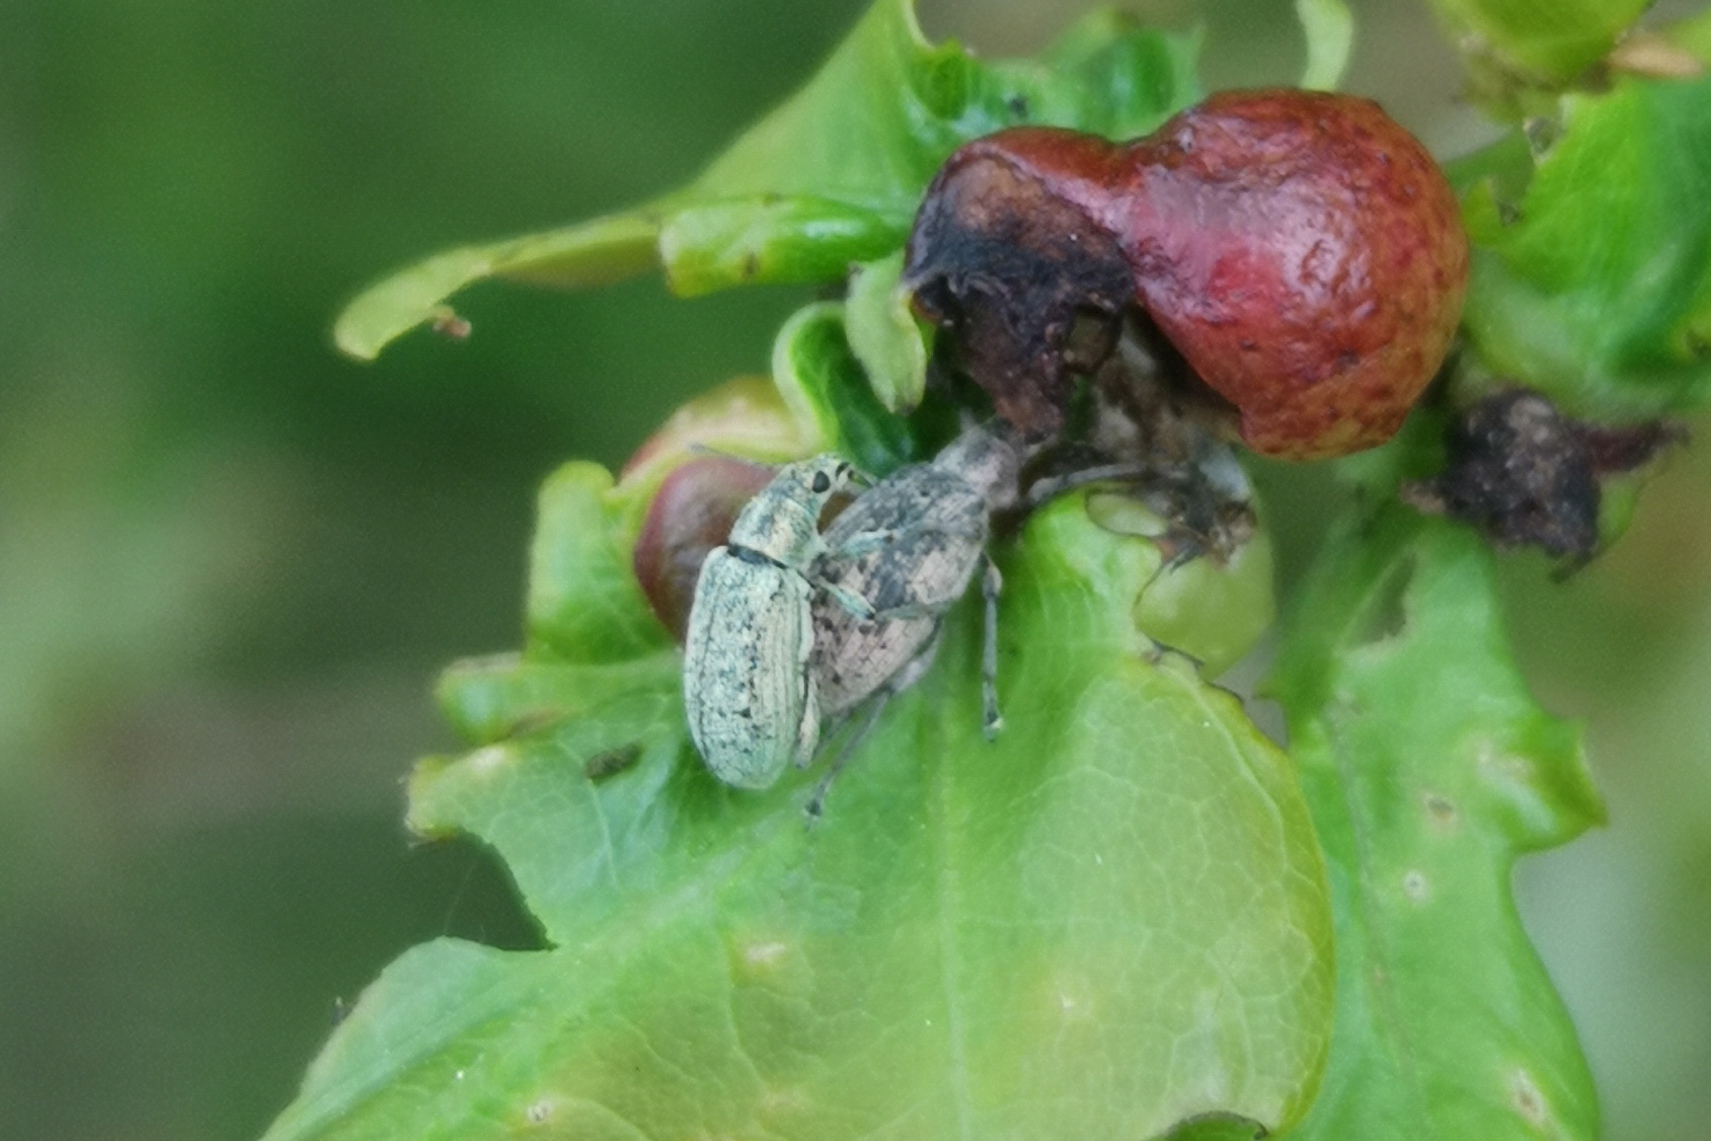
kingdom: Animalia
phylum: Arthropoda
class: Insecta
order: Coleoptera
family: Curculionidae
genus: Polydrusus
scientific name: Polydrusus cervinus
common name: Weevil
